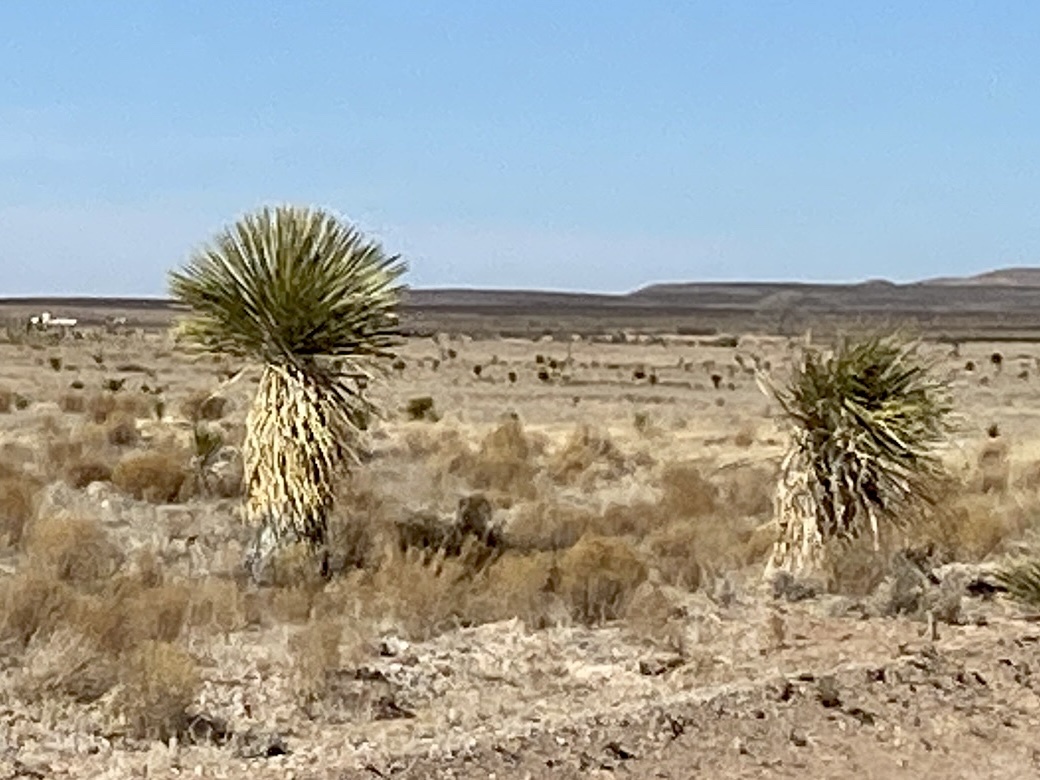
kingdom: Plantae
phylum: Tracheophyta
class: Liliopsida
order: Asparagales
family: Asparagaceae
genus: Yucca
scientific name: Yucca elata
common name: Palmella
